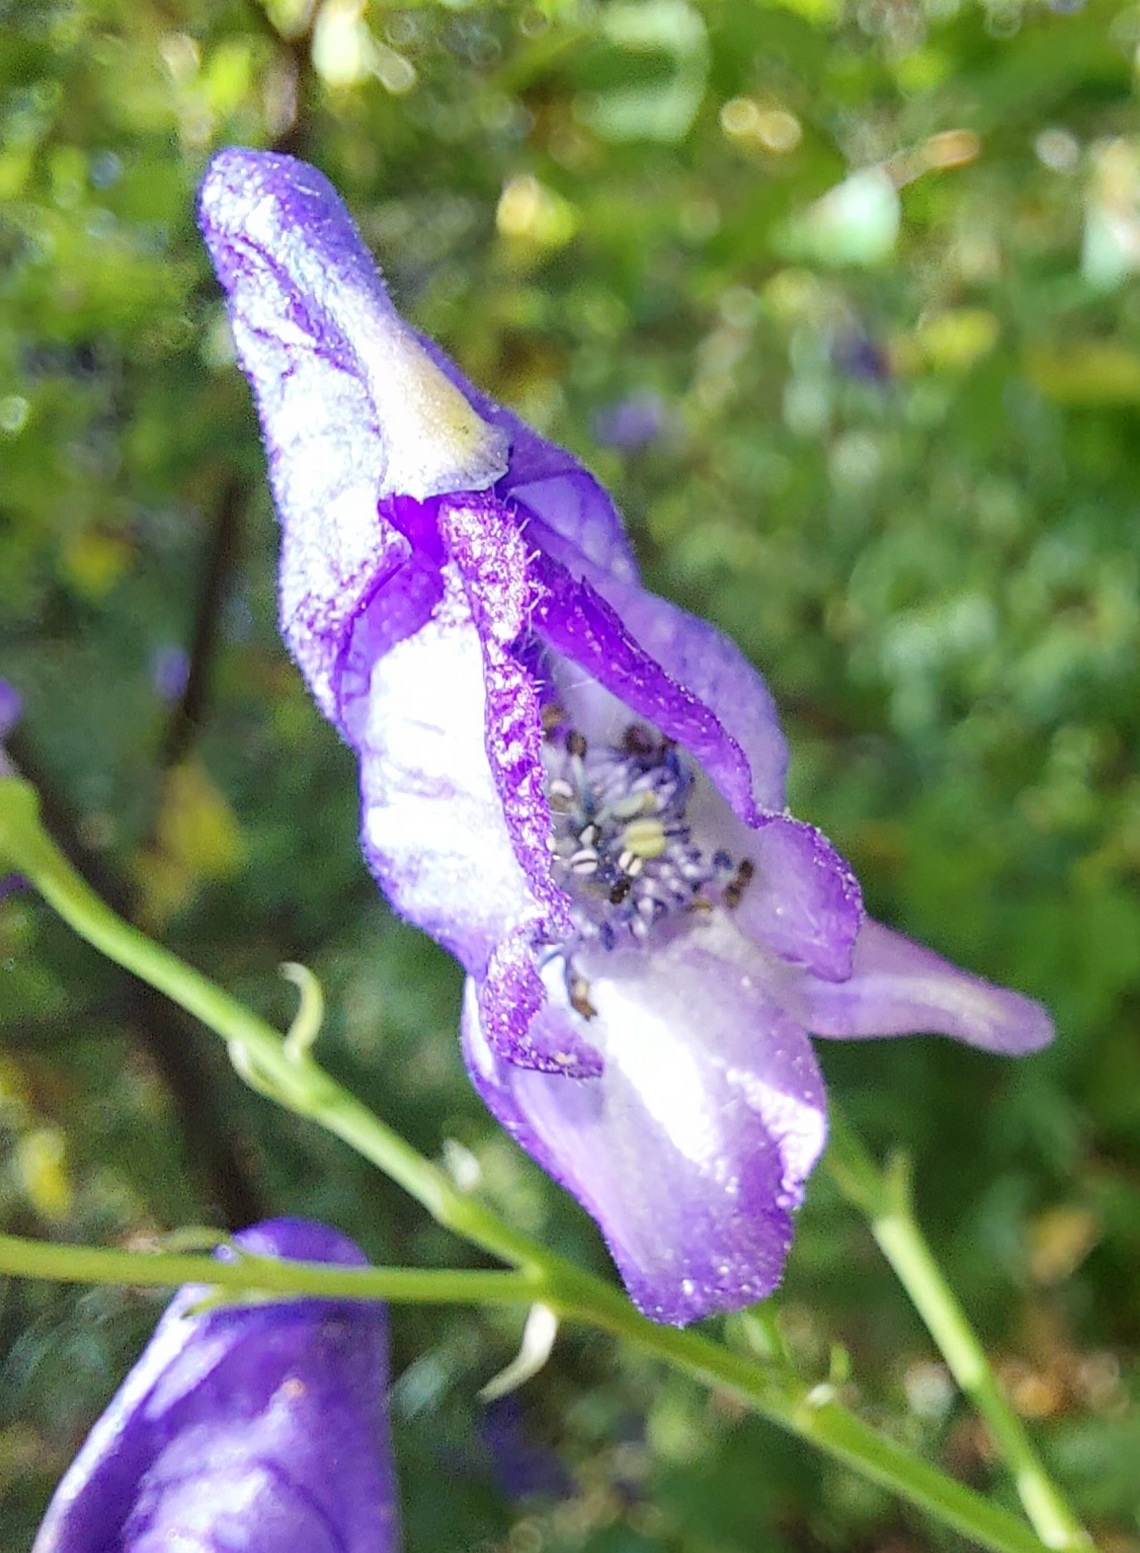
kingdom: Plantae
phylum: Tracheophyta
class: Magnoliopsida
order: Ranunculales
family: Ranunculaceae
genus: Aconitum
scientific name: Aconitum volubile
